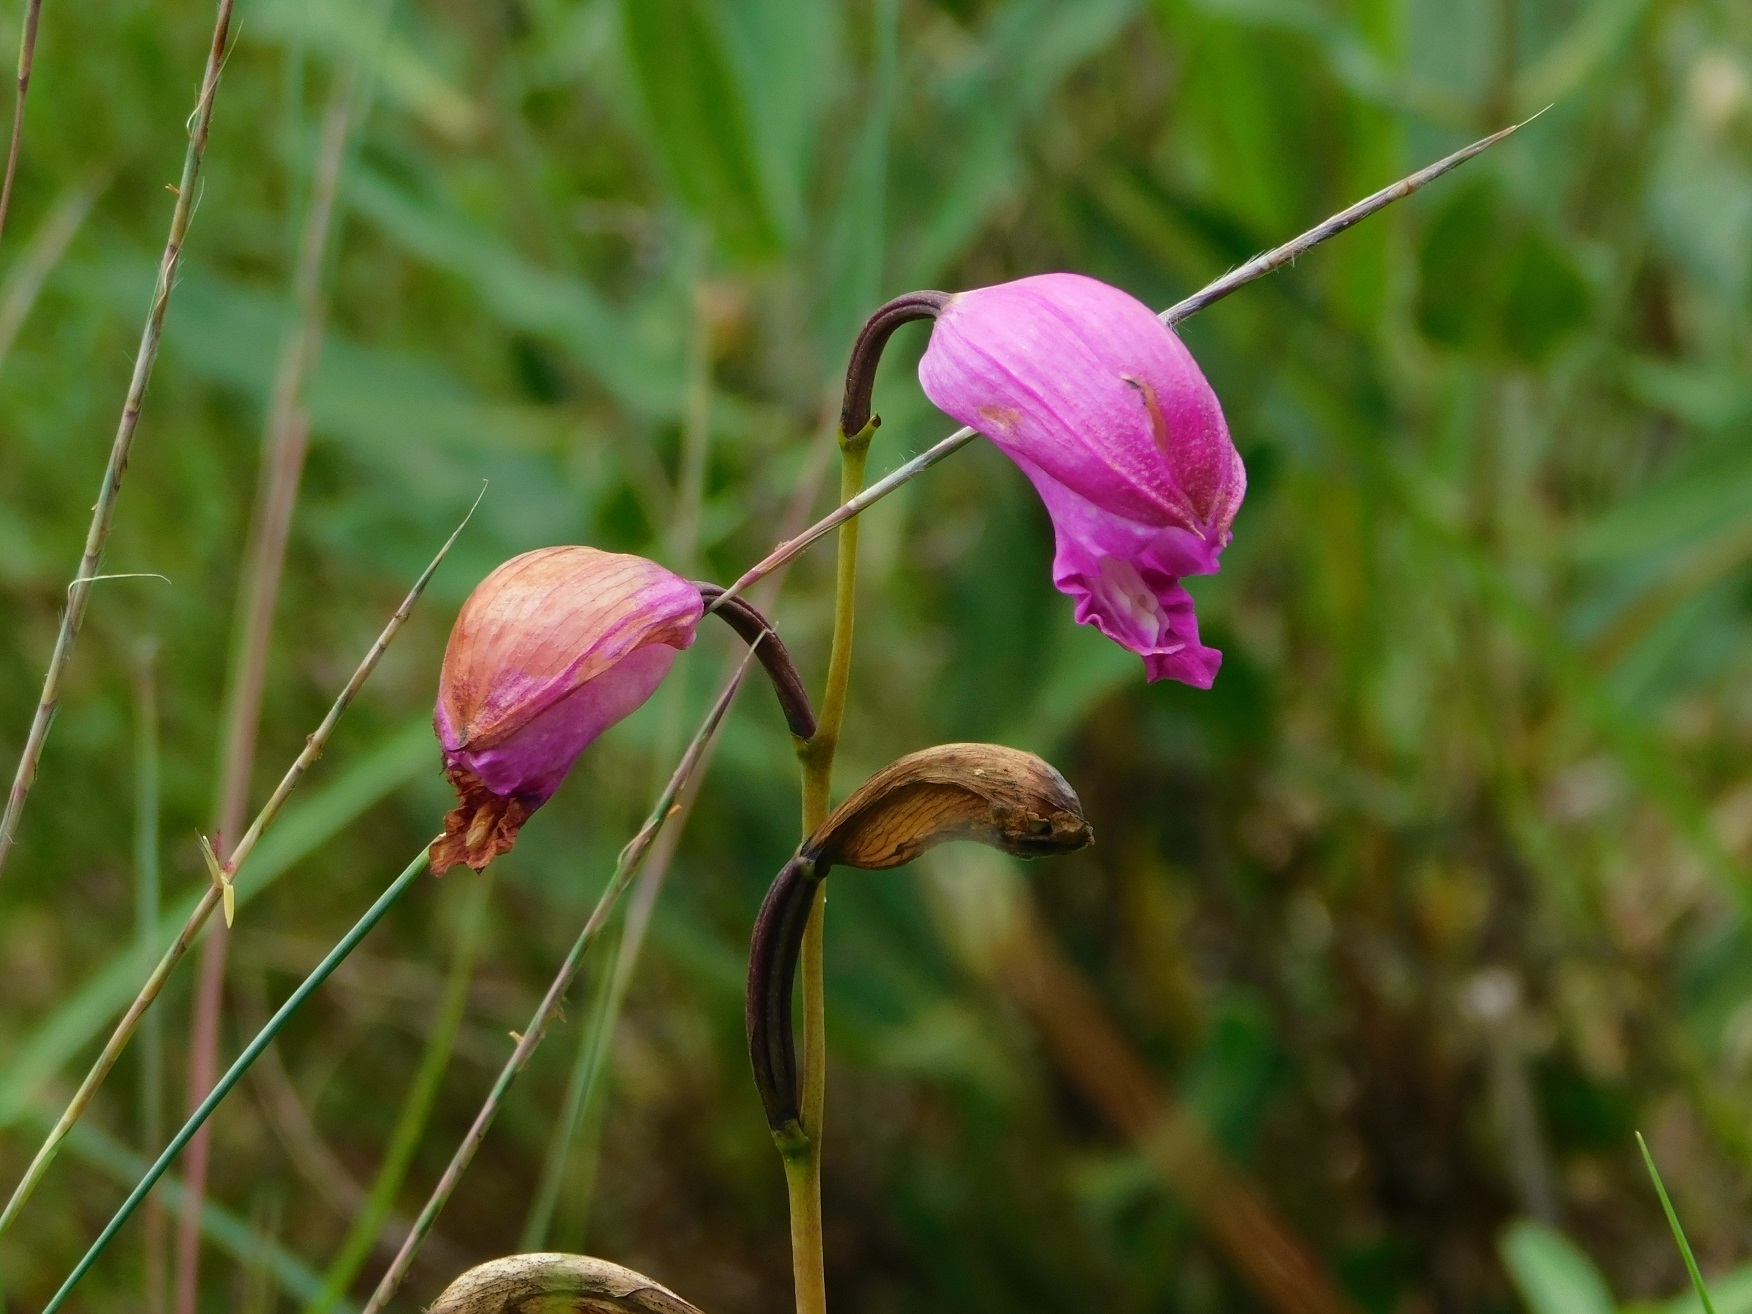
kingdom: Plantae
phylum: Tracheophyta
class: Liliopsida
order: Asparagales
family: Orchidaceae
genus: Bletia
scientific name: Bletia campanulata
